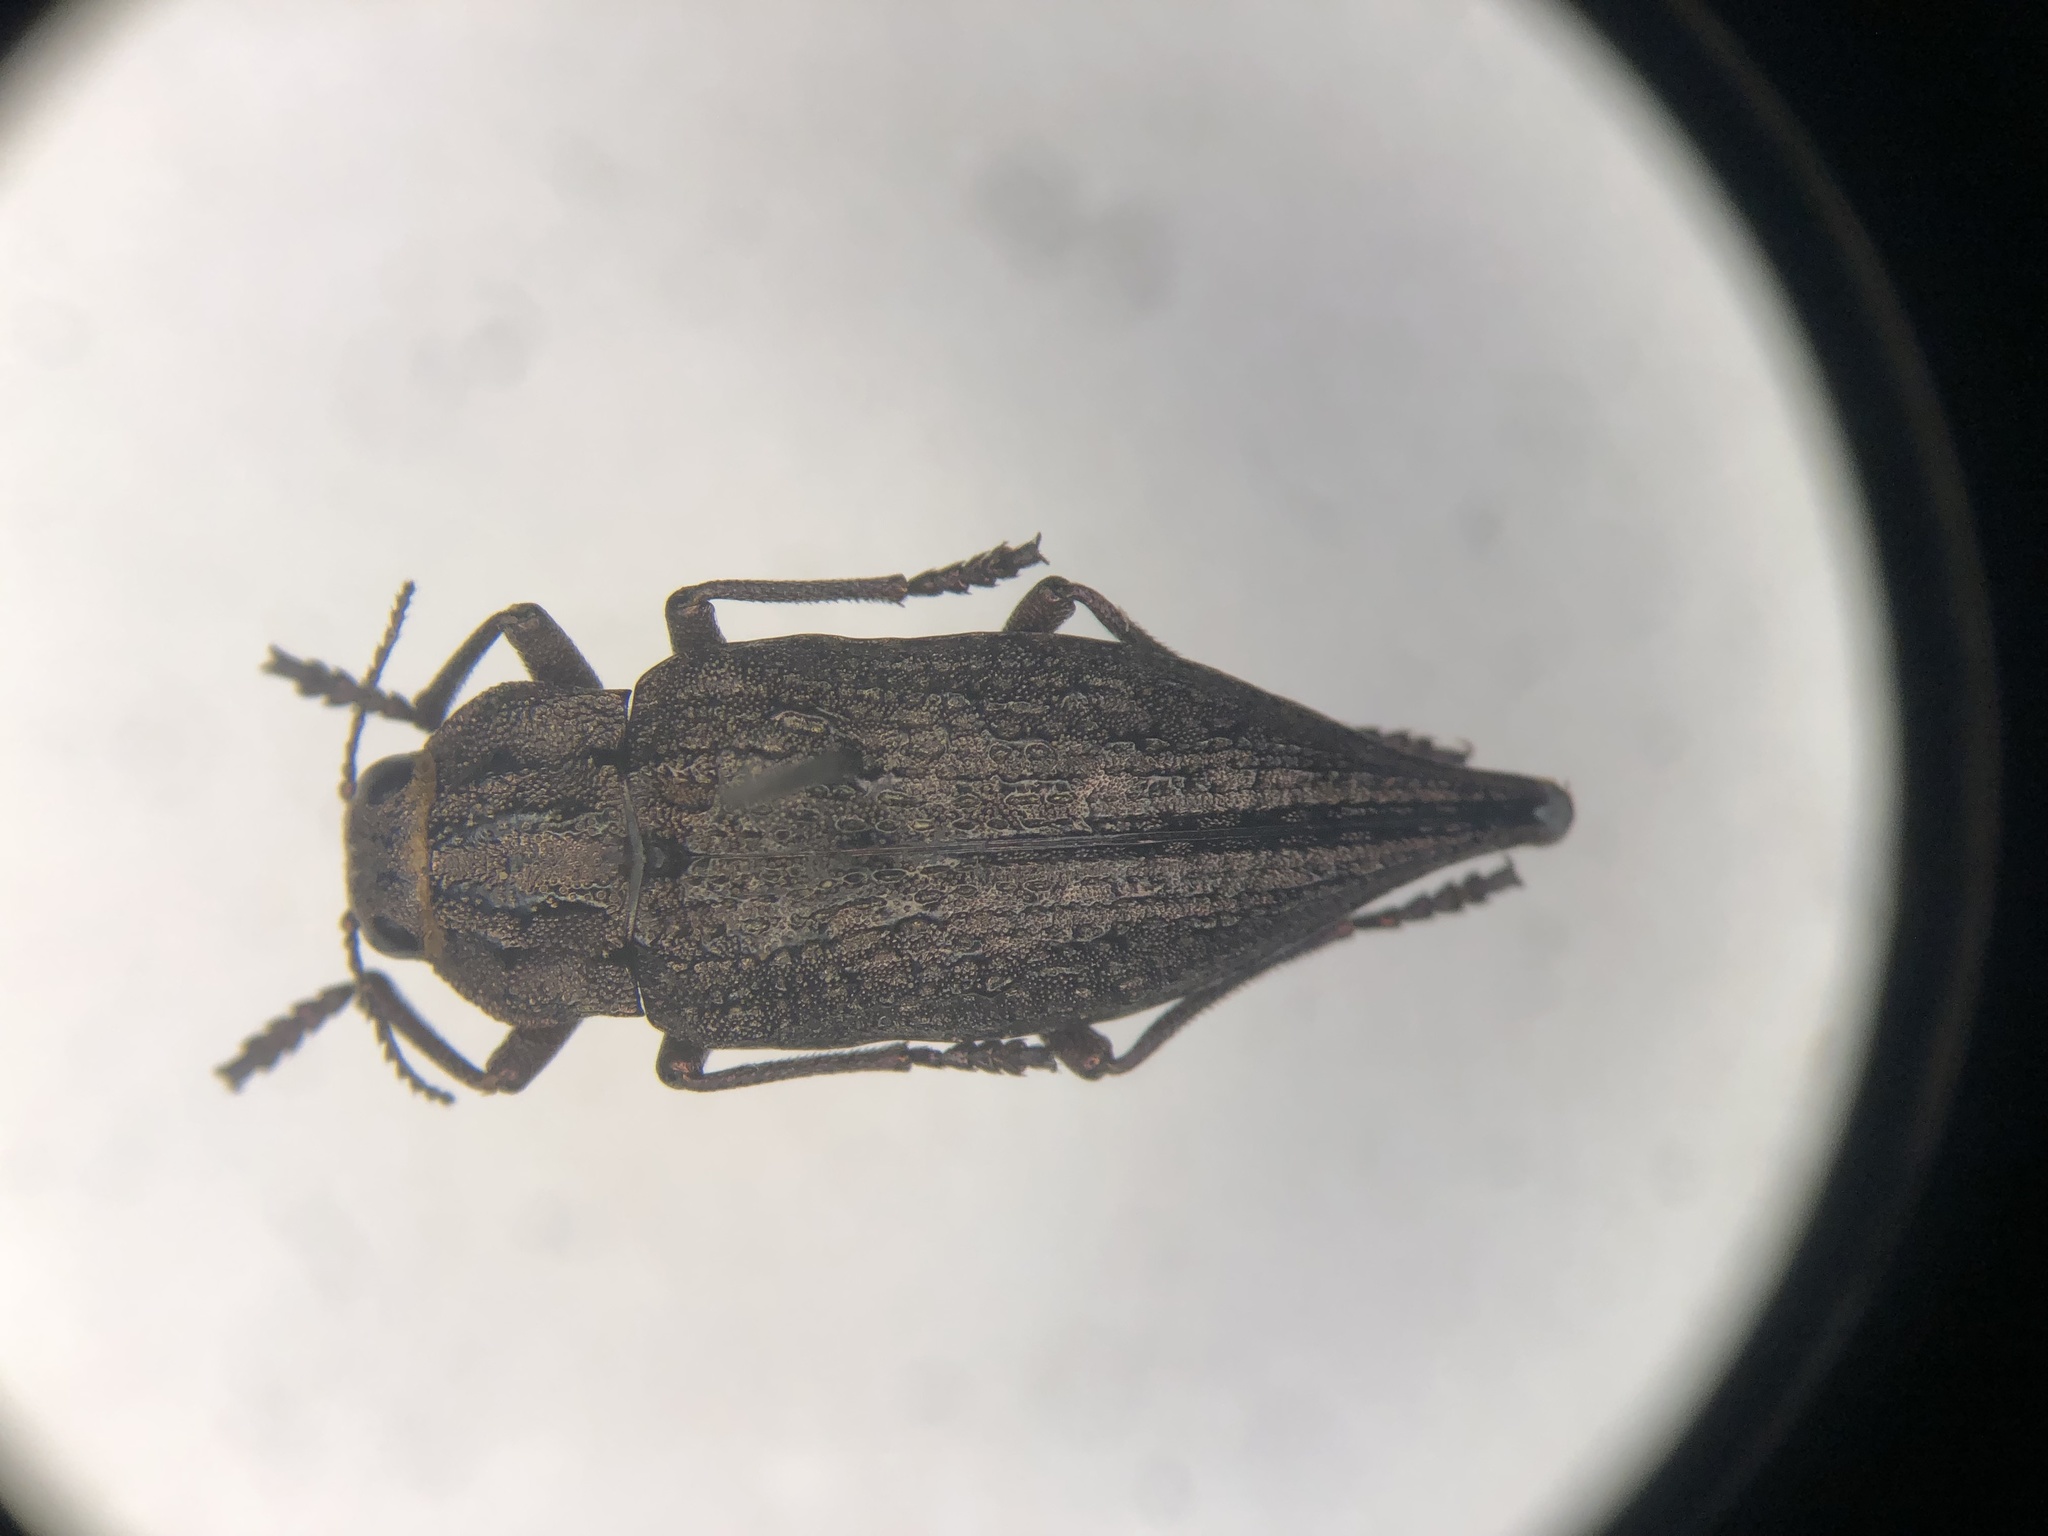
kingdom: Animalia
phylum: Arthropoda
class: Insecta
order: Coleoptera
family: Buprestidae
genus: Dicerca
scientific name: Dicerca lugubris
